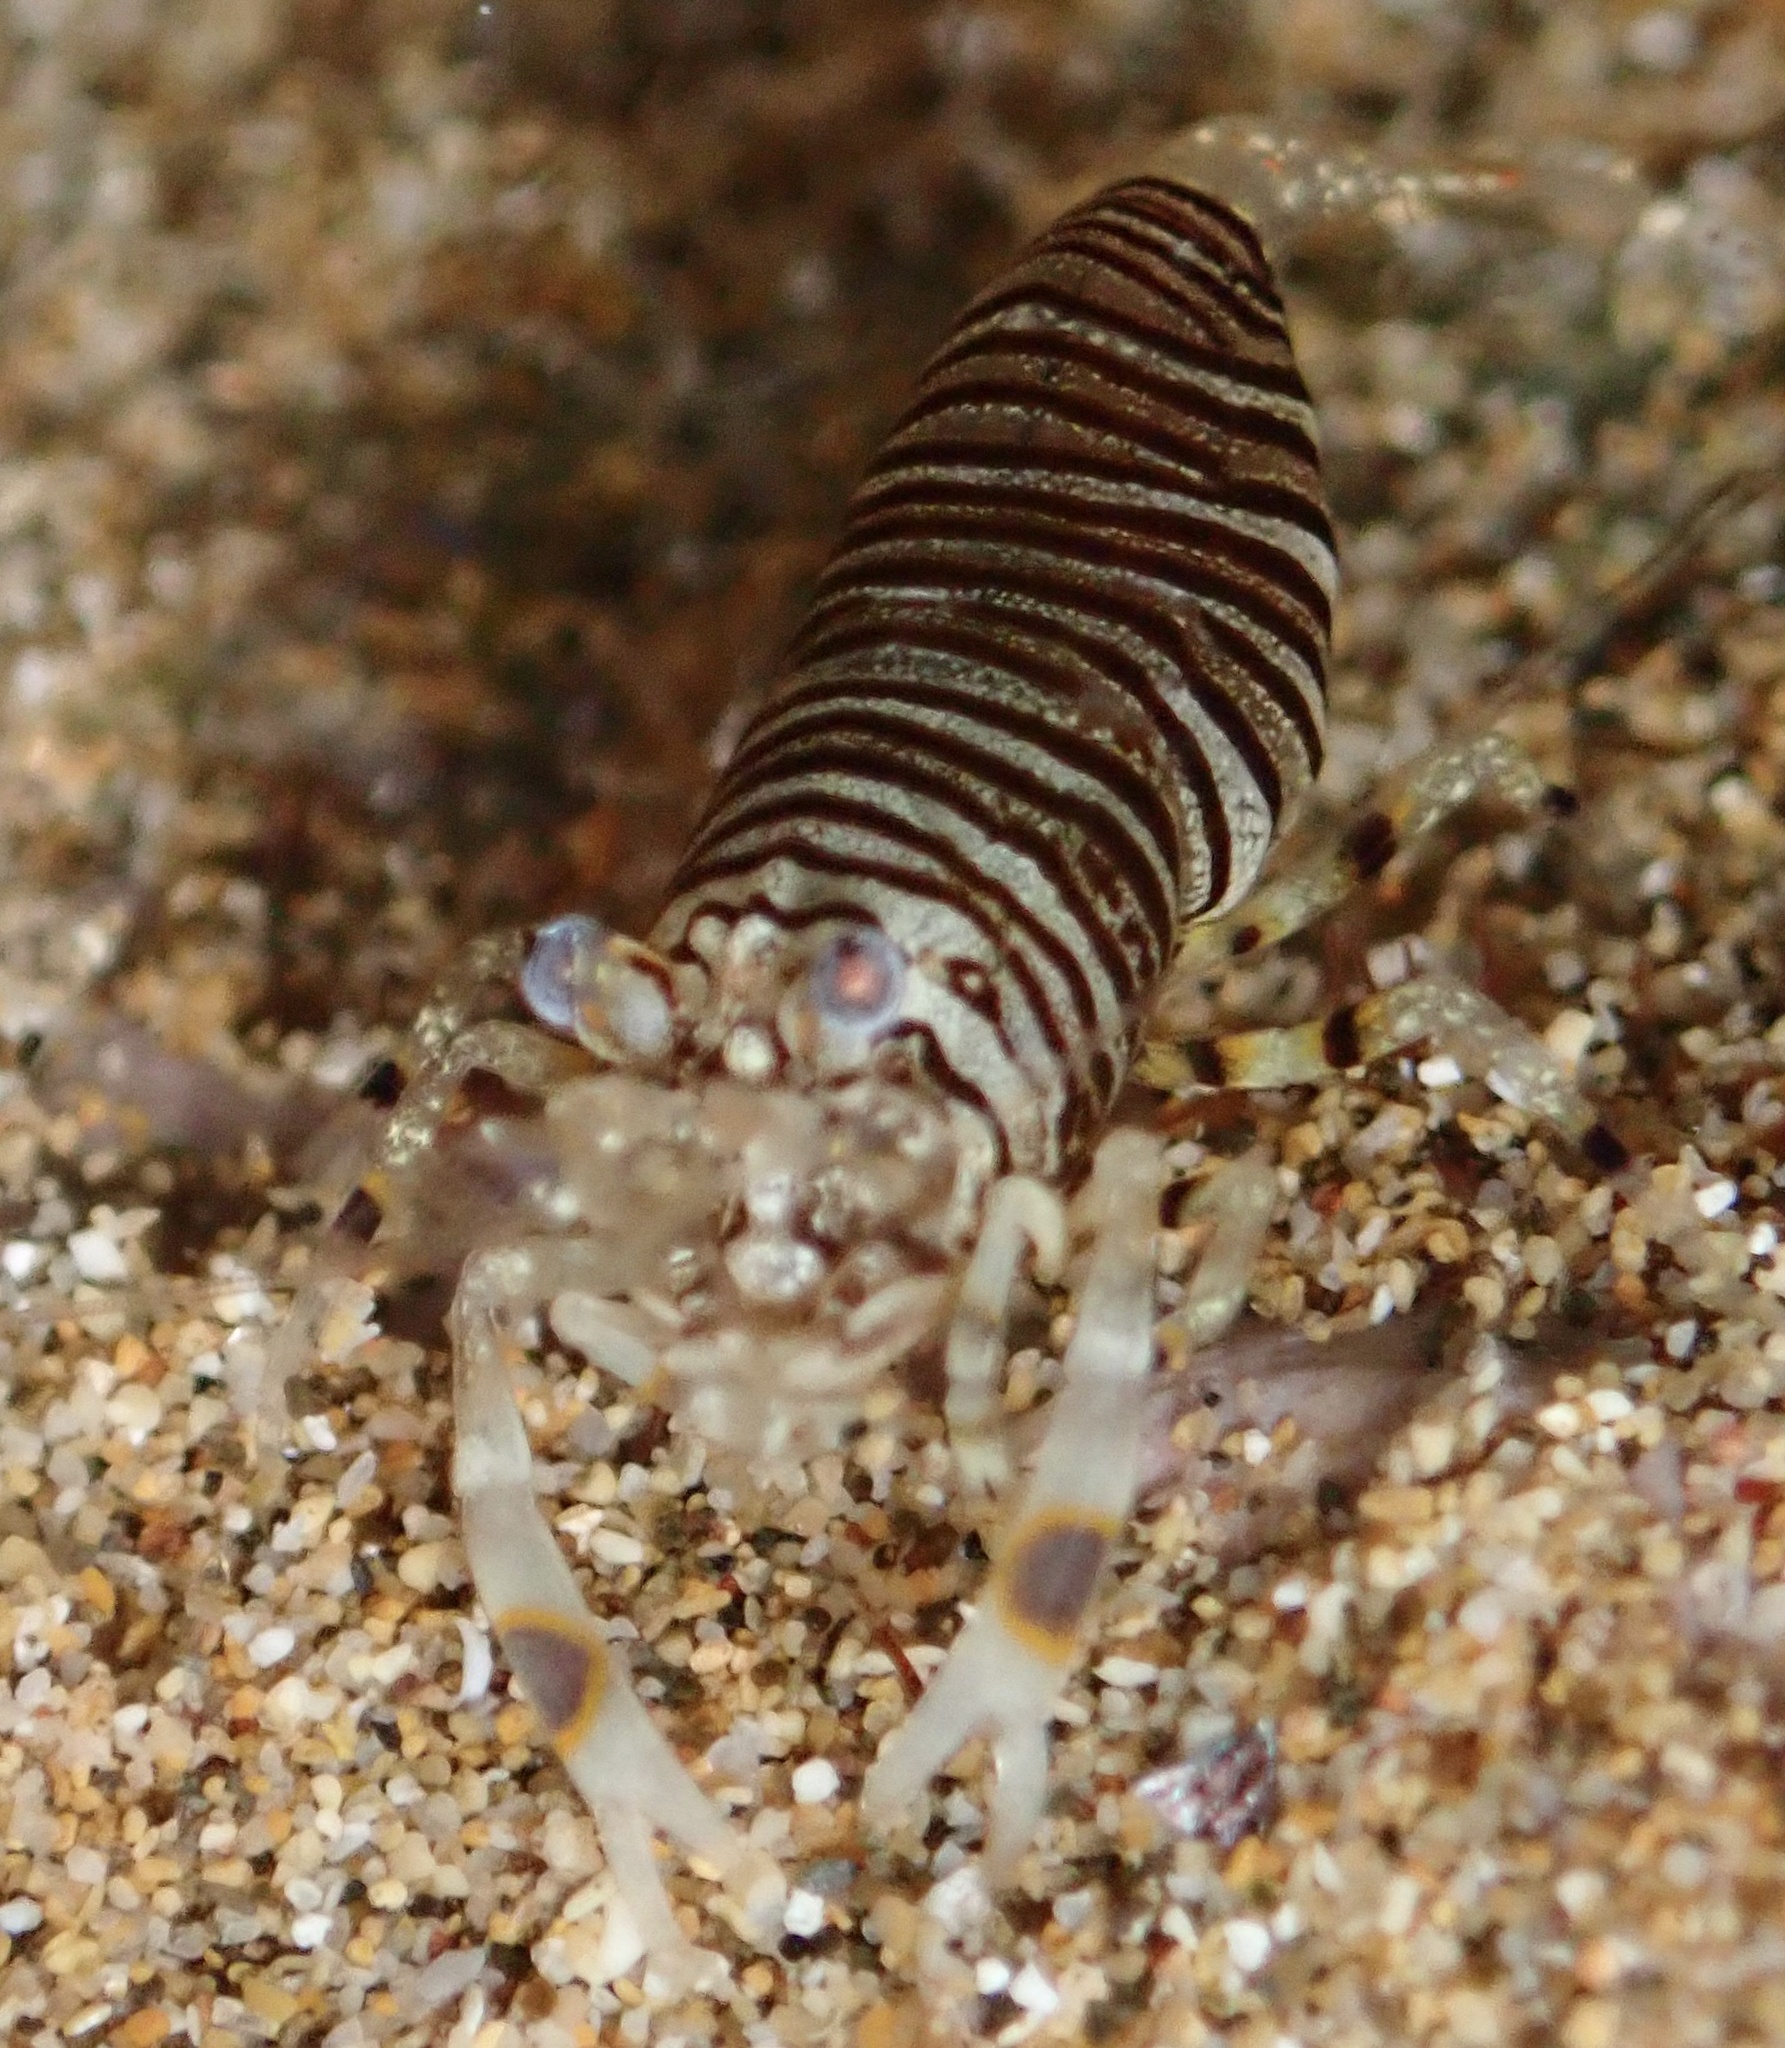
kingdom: Animalia
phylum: Arthropoda
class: Malacostraca
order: Decapoda
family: Palaemonidae
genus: Gnathophyllum
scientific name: Gnathophyllum americanum
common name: Bumblebee shrimp
